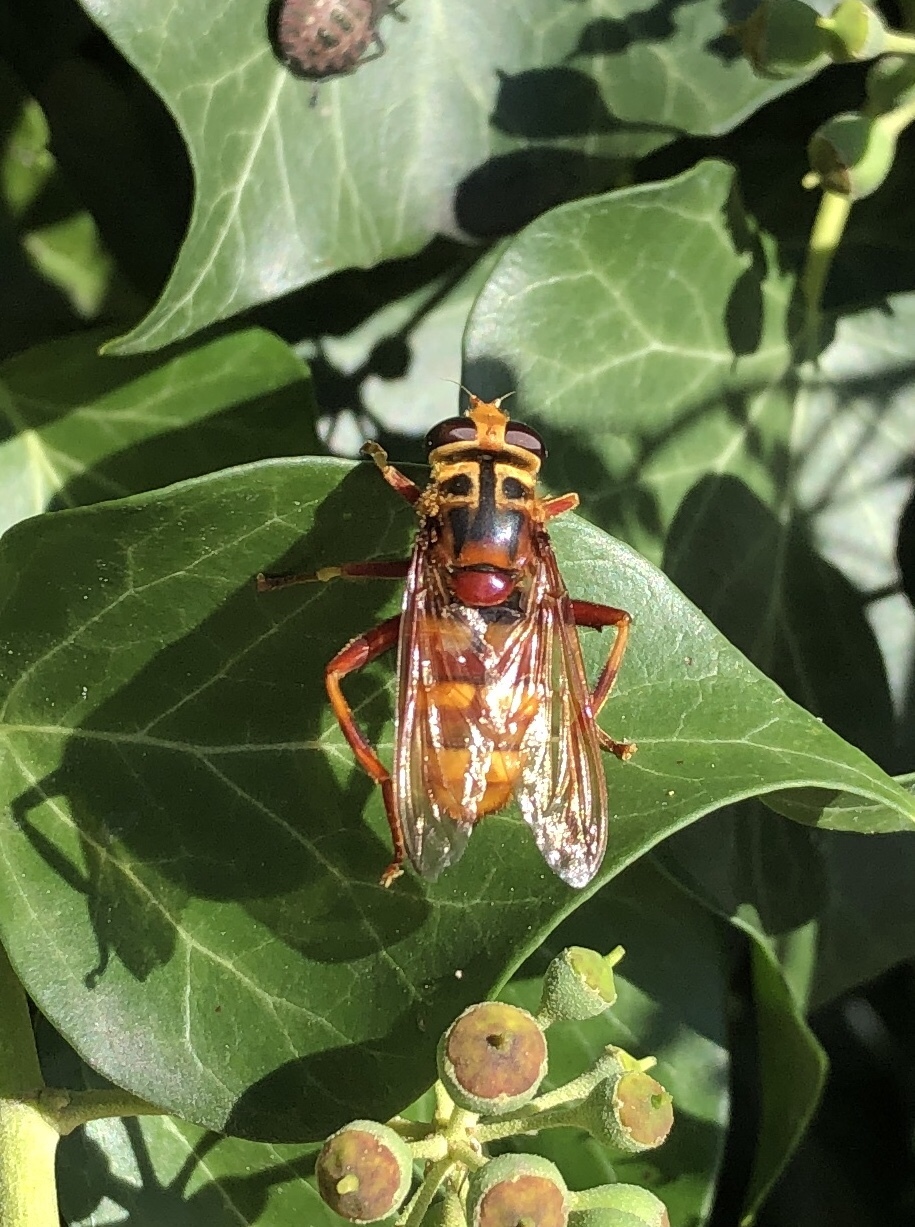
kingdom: Animalia
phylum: Arthropoda
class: Insecta
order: Diptera
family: Syrphidae
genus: Milesia
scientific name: Milesia crabroniformis
